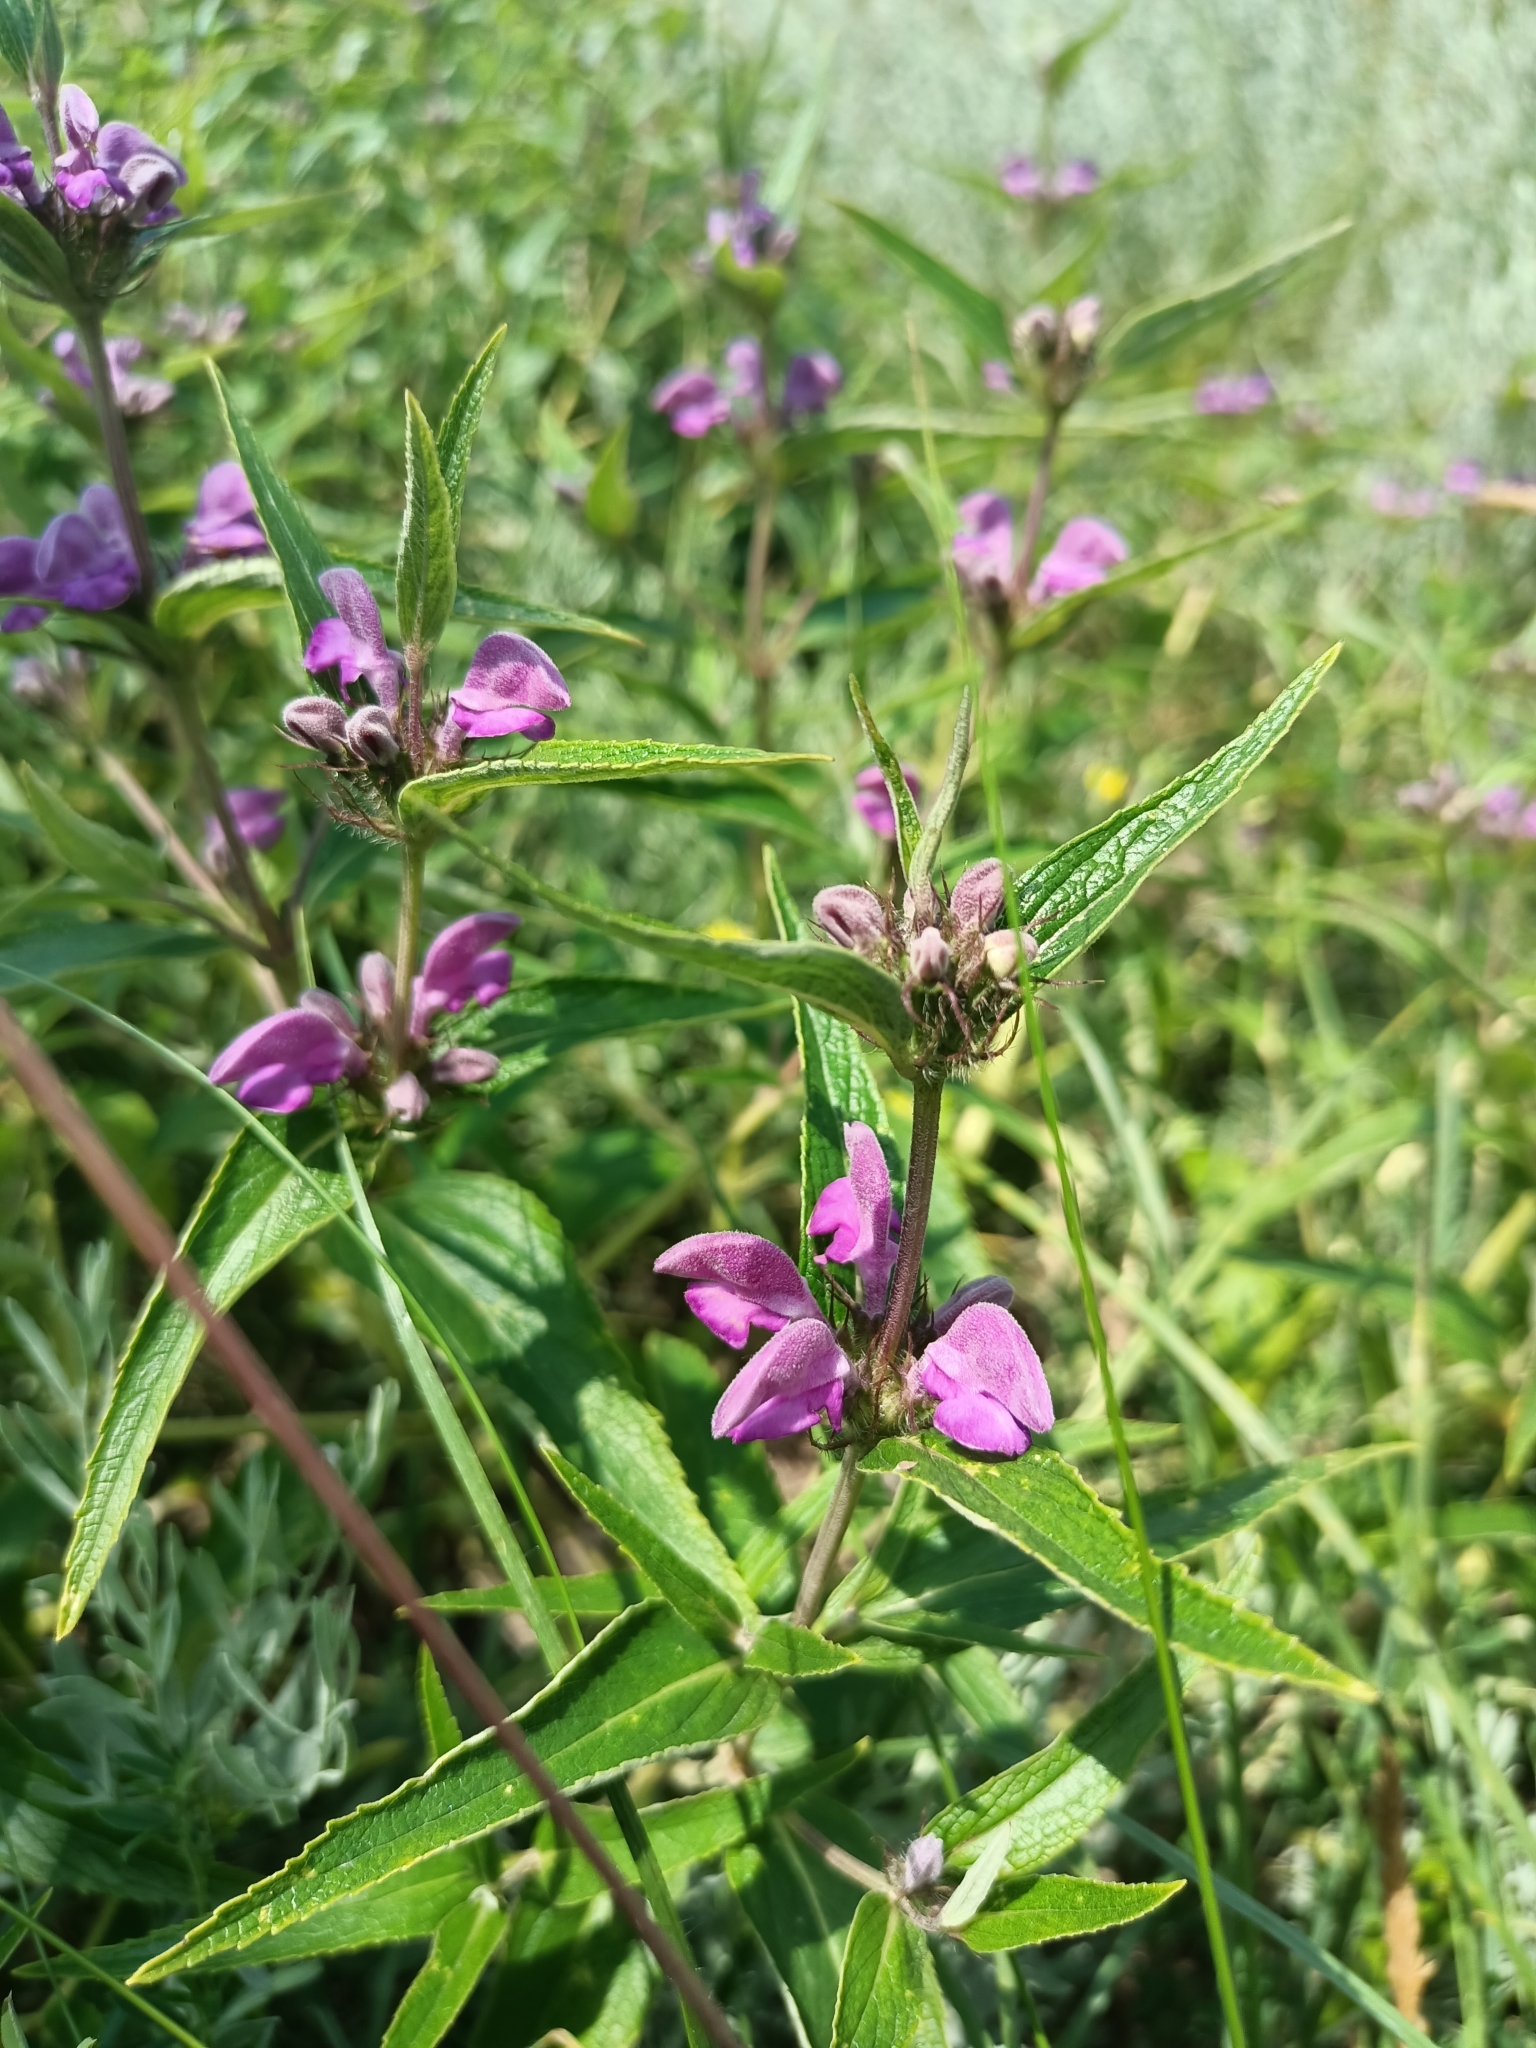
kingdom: Plantae
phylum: Tracheophyta
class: Magnoliopsida
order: Lamiales
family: Lamiaceae
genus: Phlomis
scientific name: Phlomis herba-venti
